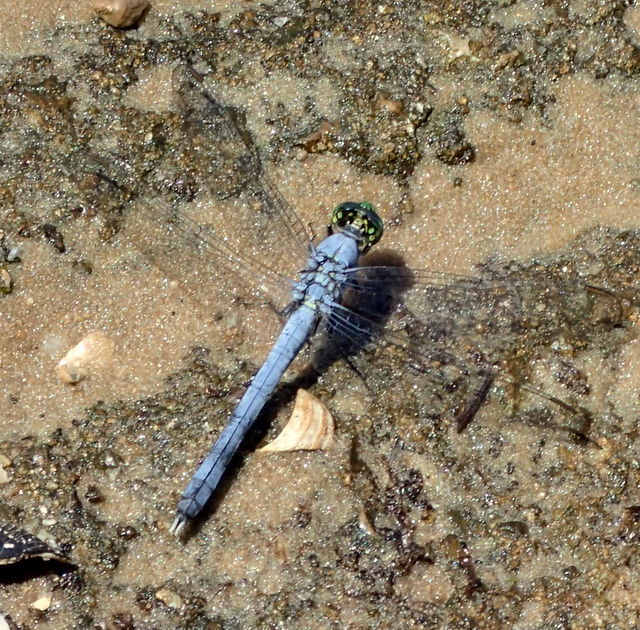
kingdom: Animalia
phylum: Arthropoda
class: Insecta
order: Odonata
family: Libellulidae
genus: Erythemis
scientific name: Erythemis simplicicollis
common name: Eastern pondhawk
